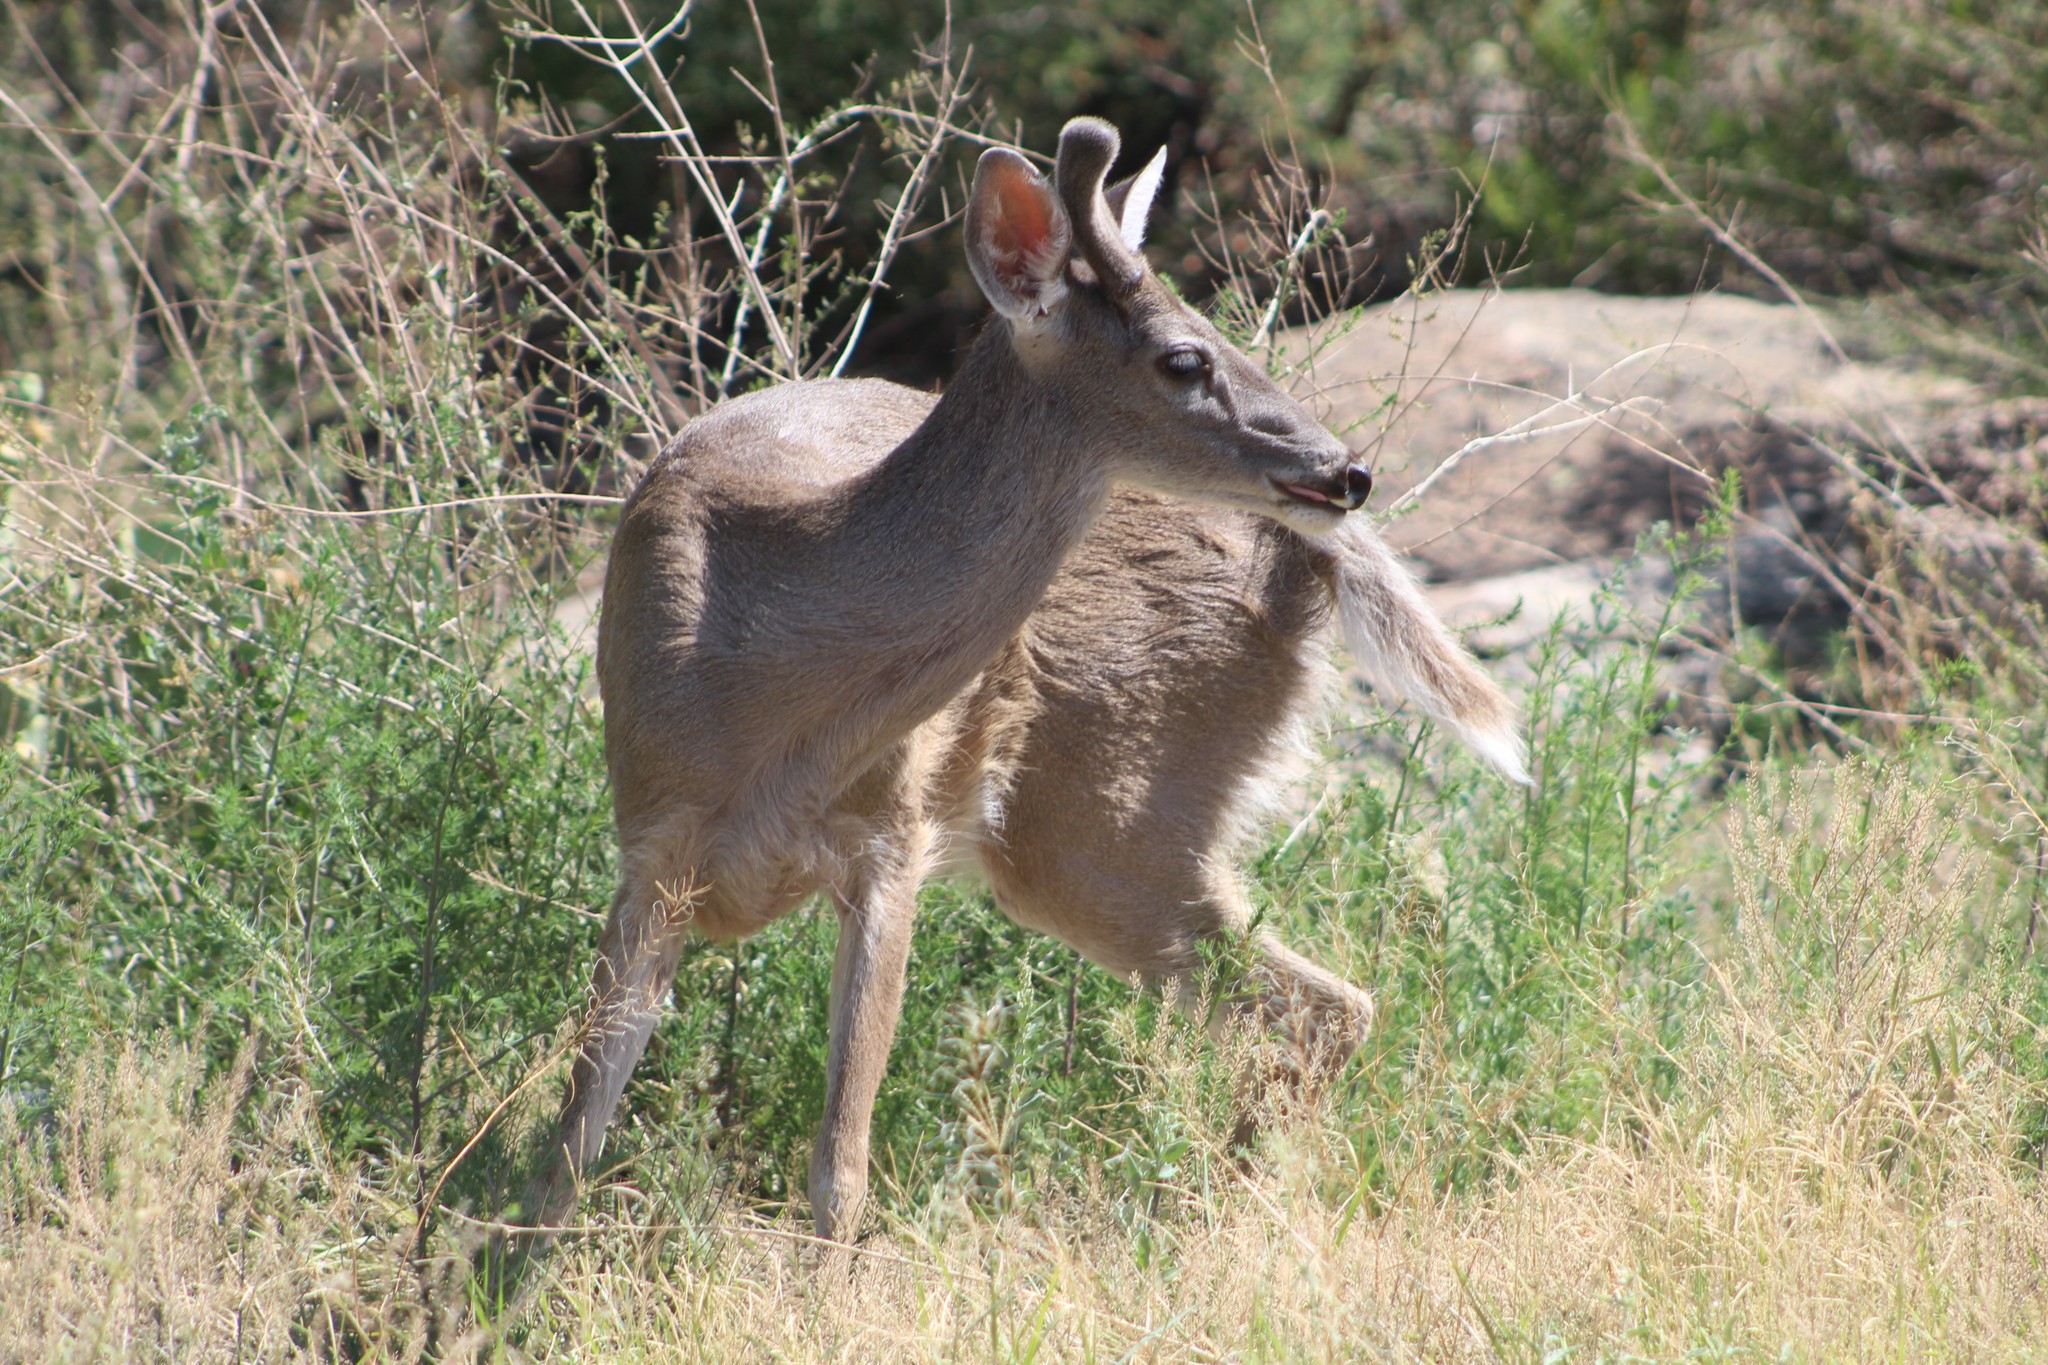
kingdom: Animalia
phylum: Chordata
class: Mammalia
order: Artiodactyla
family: Cervidae
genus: Odocoileus
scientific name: Odocoileus virginianus
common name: White-tailed deer
